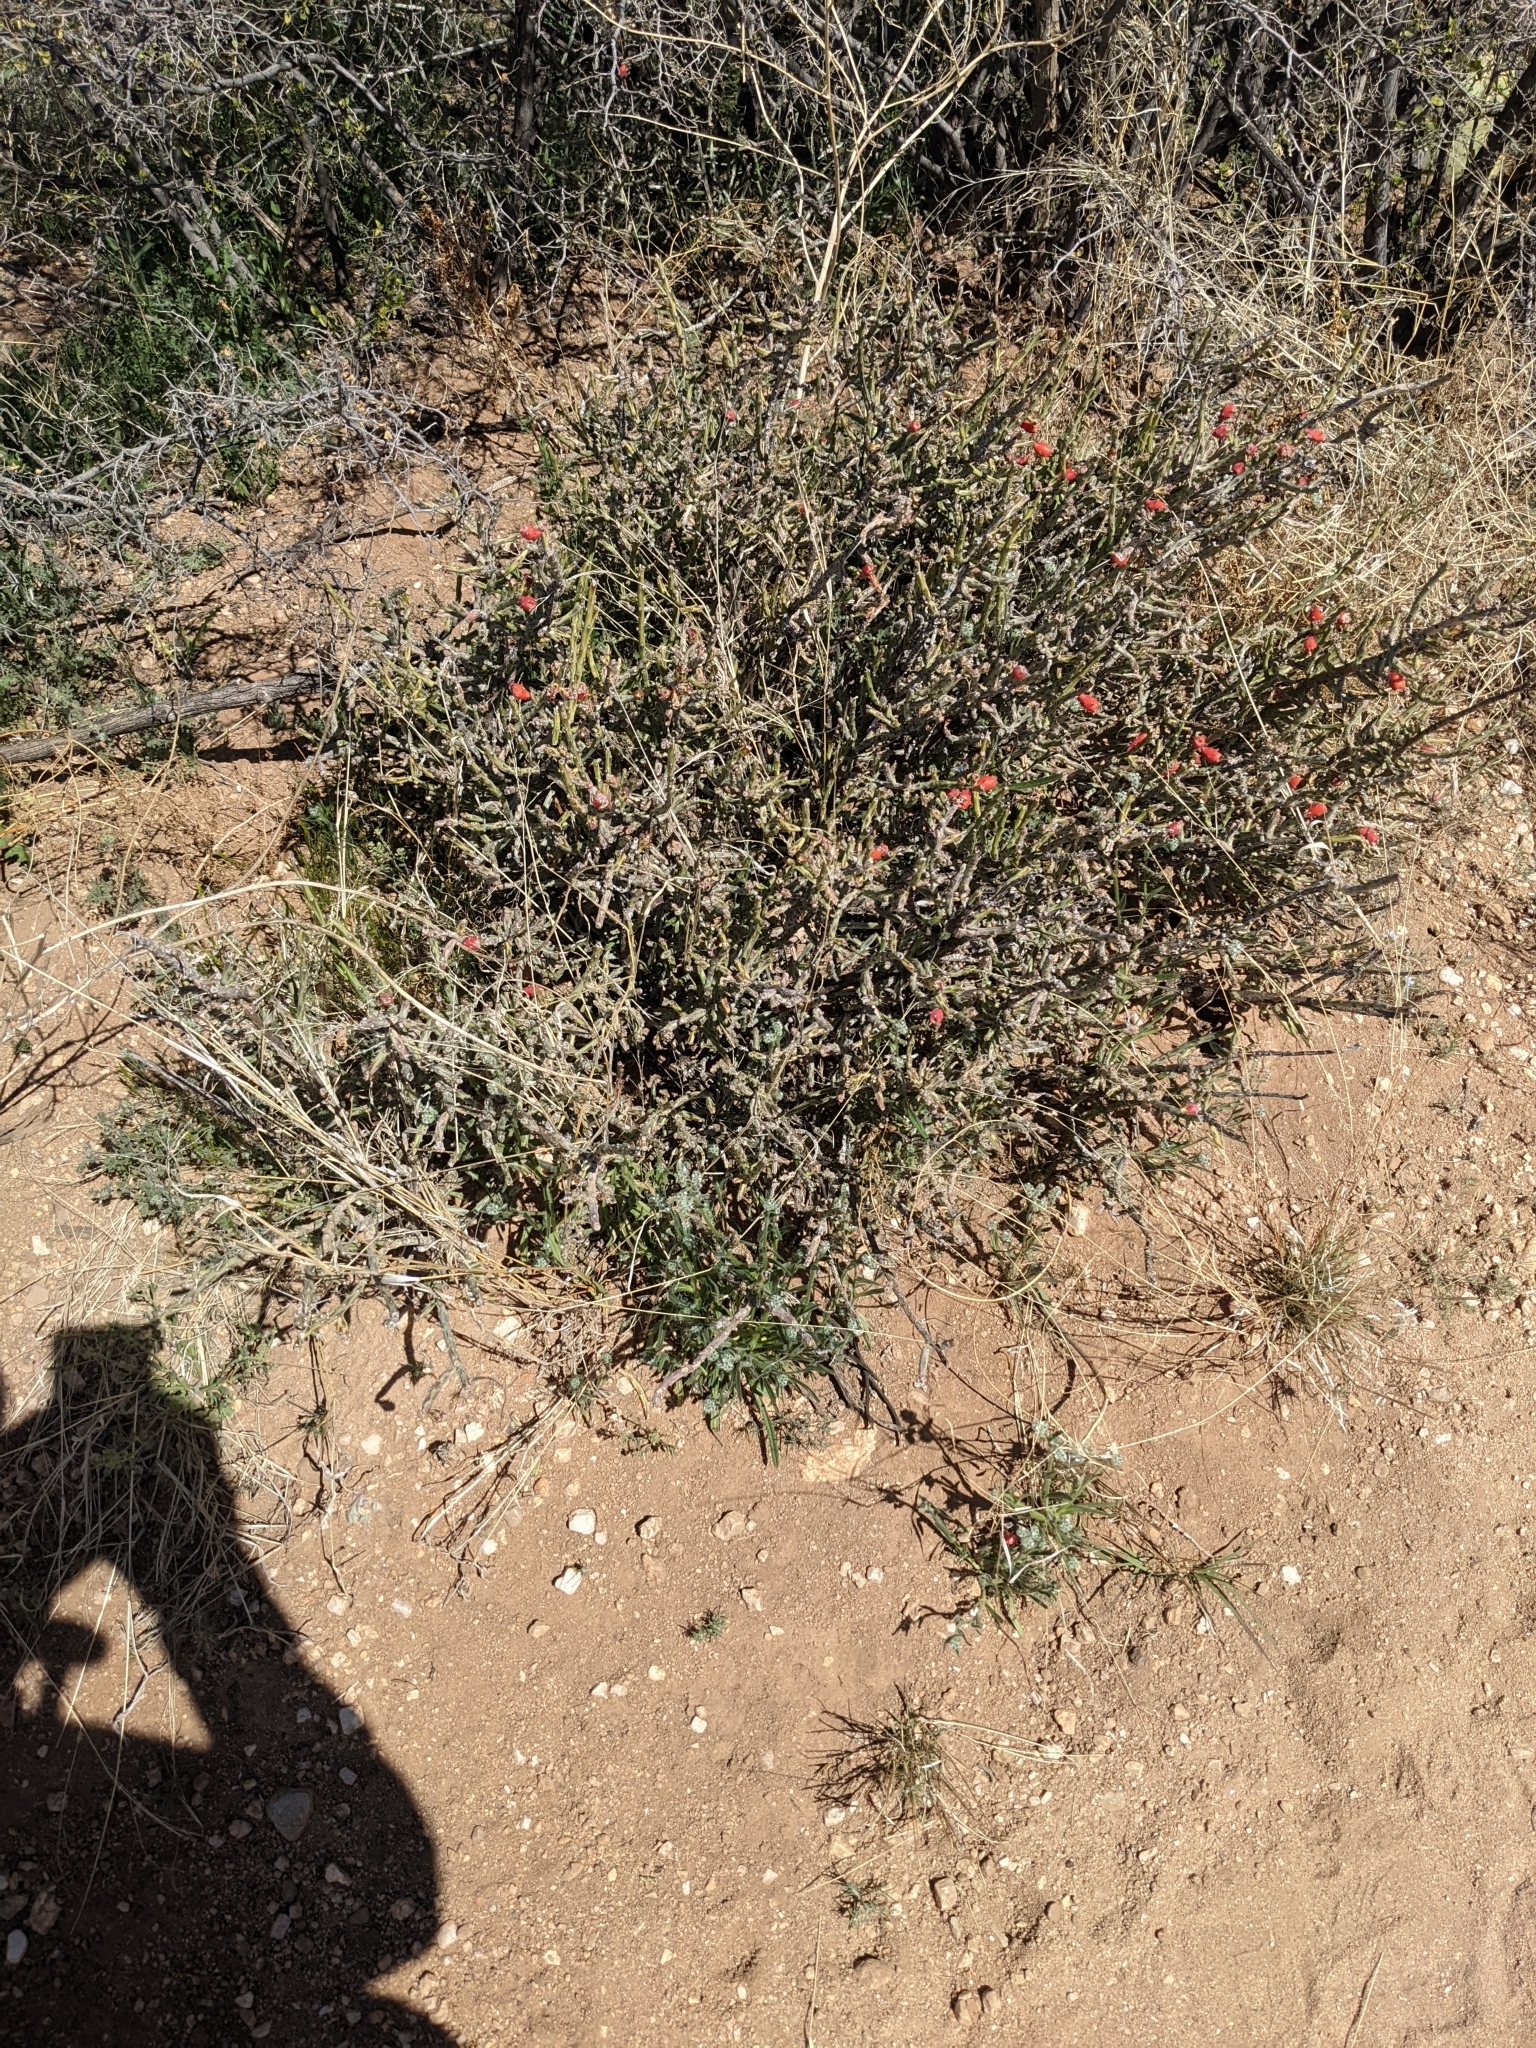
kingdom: Plantae
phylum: Tracheophyta
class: Magnoliopsida
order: Caryophyllales
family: Cactaceae
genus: Cylindropuntia
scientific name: Cylindropuntia leptocaulis
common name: Christmas cactus
